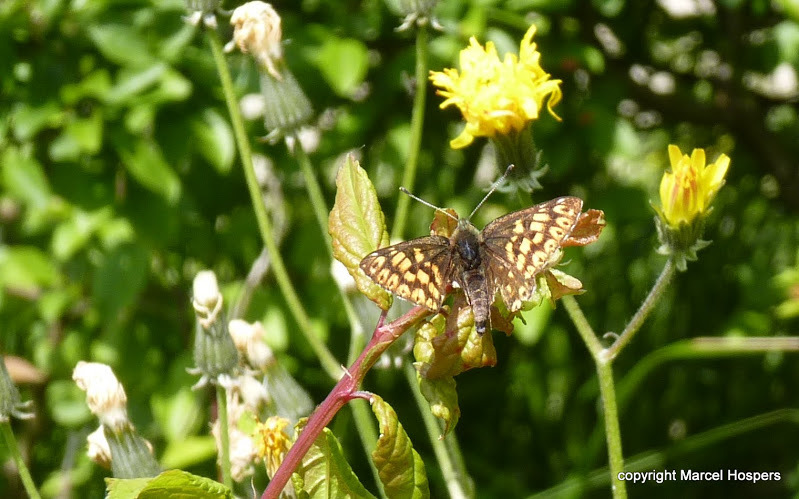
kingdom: Animalia
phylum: Arthropoda
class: Insecta
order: Lepidoptera
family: Riodinidae
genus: Hamearis
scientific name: Hamearis lucina
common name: Duke of burgundy fritillary
